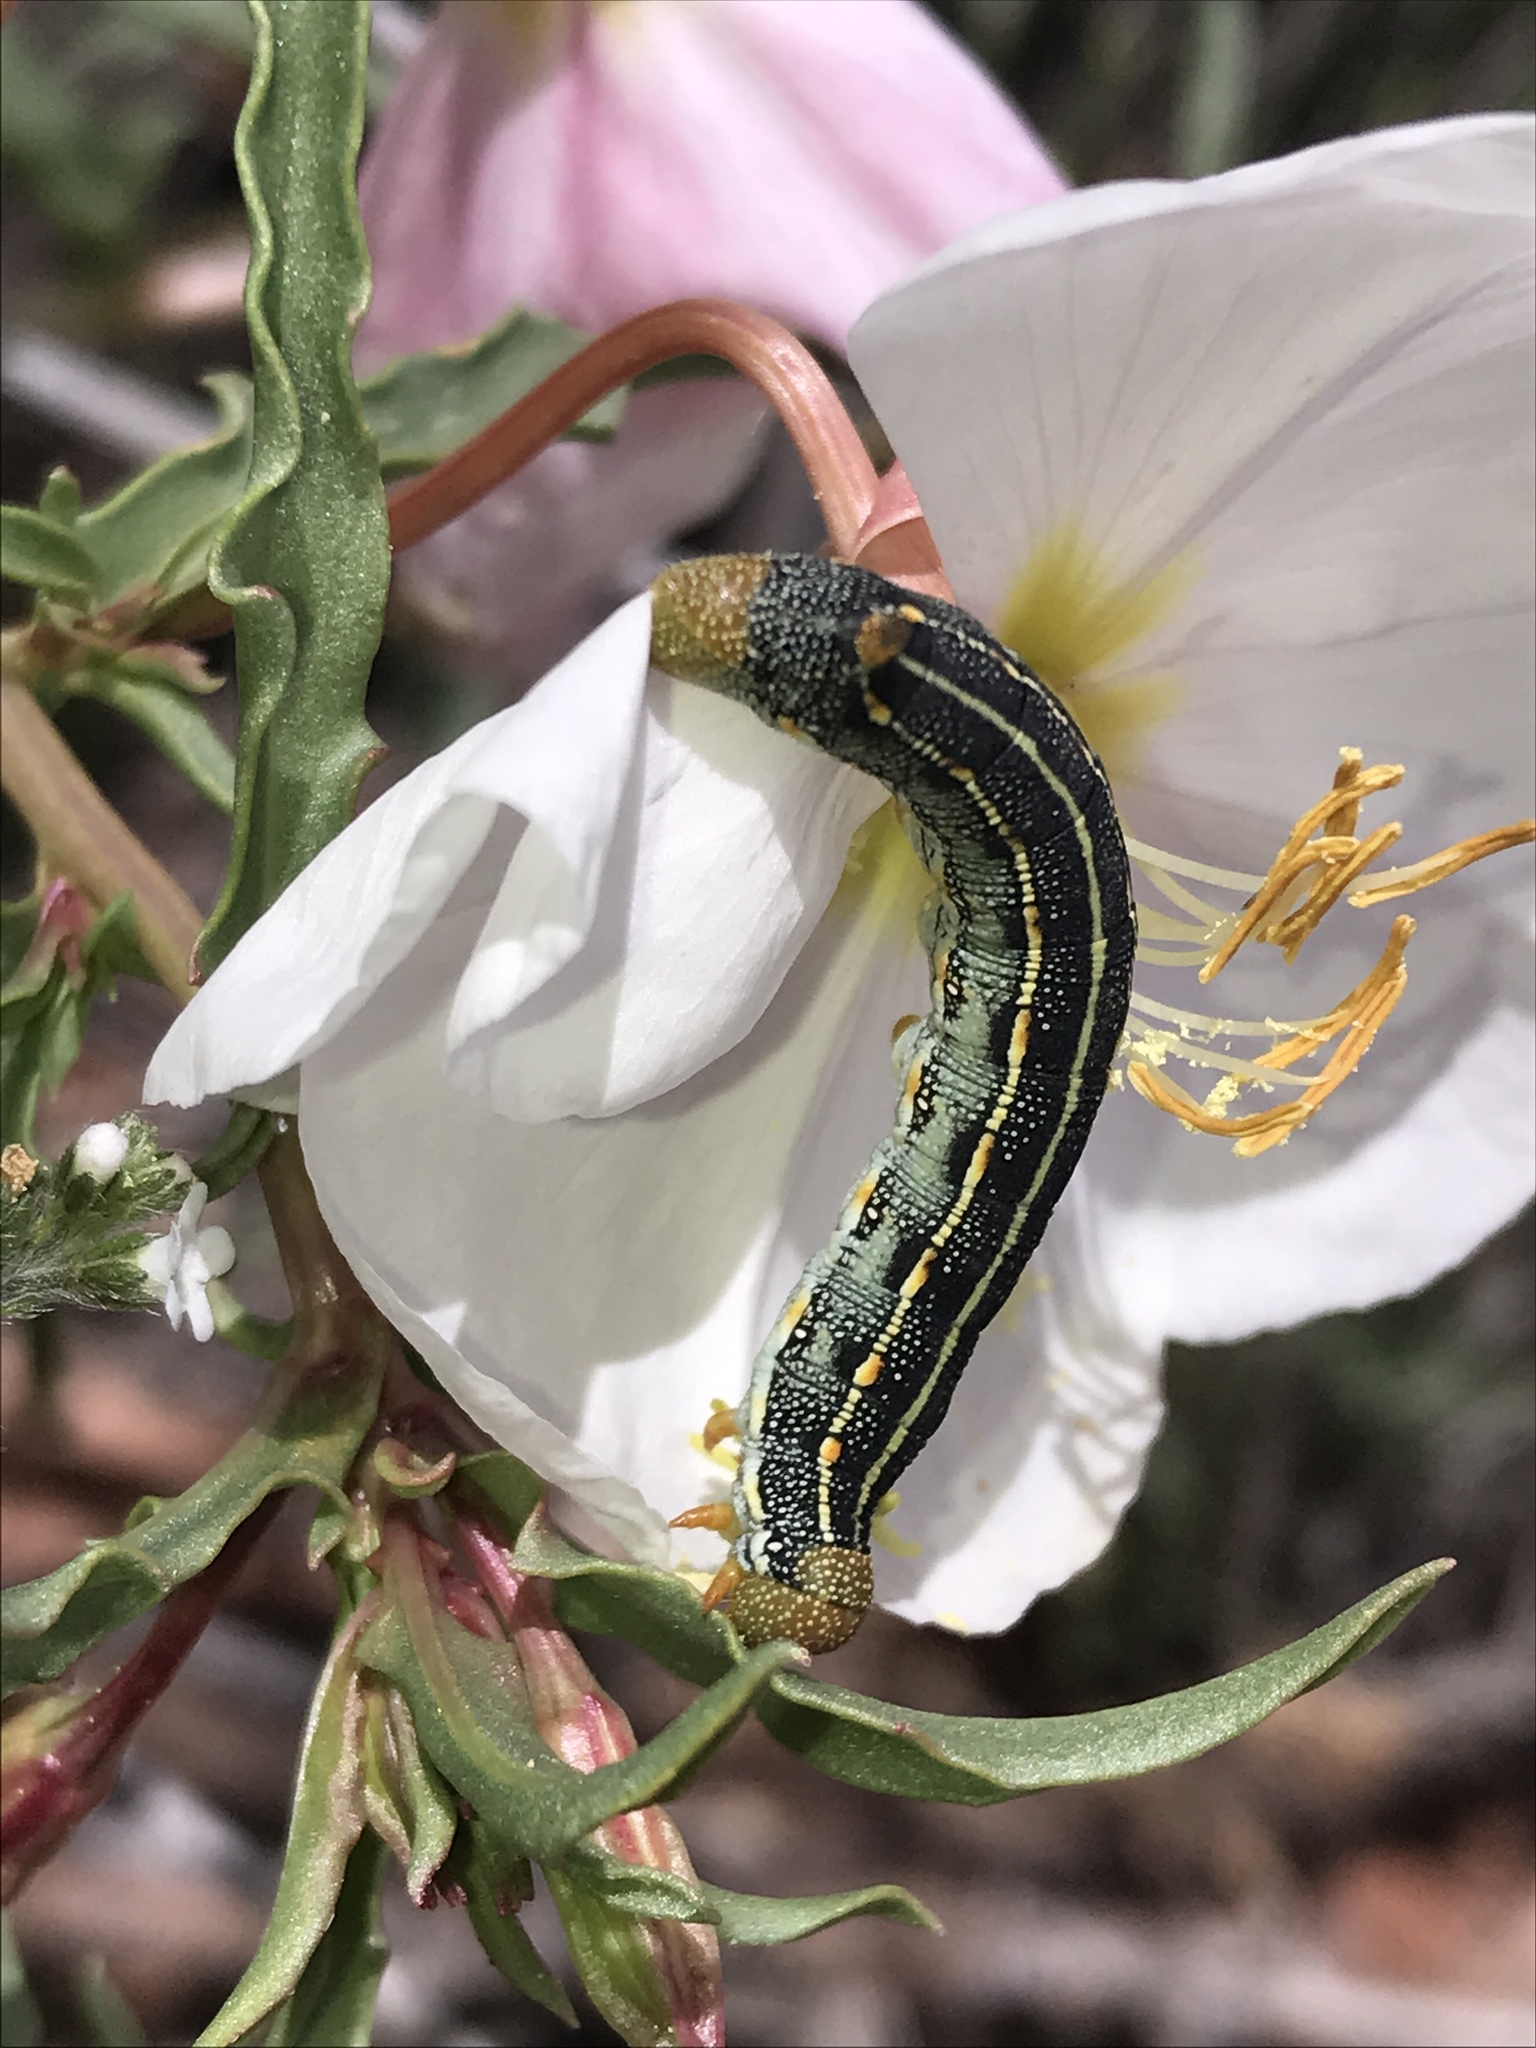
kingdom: Animalia
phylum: Arthropoda
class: Insecta
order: Lepidoptera
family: Sphingidae
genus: Hyles
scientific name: Hyles lineata
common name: White-lined sphinx
